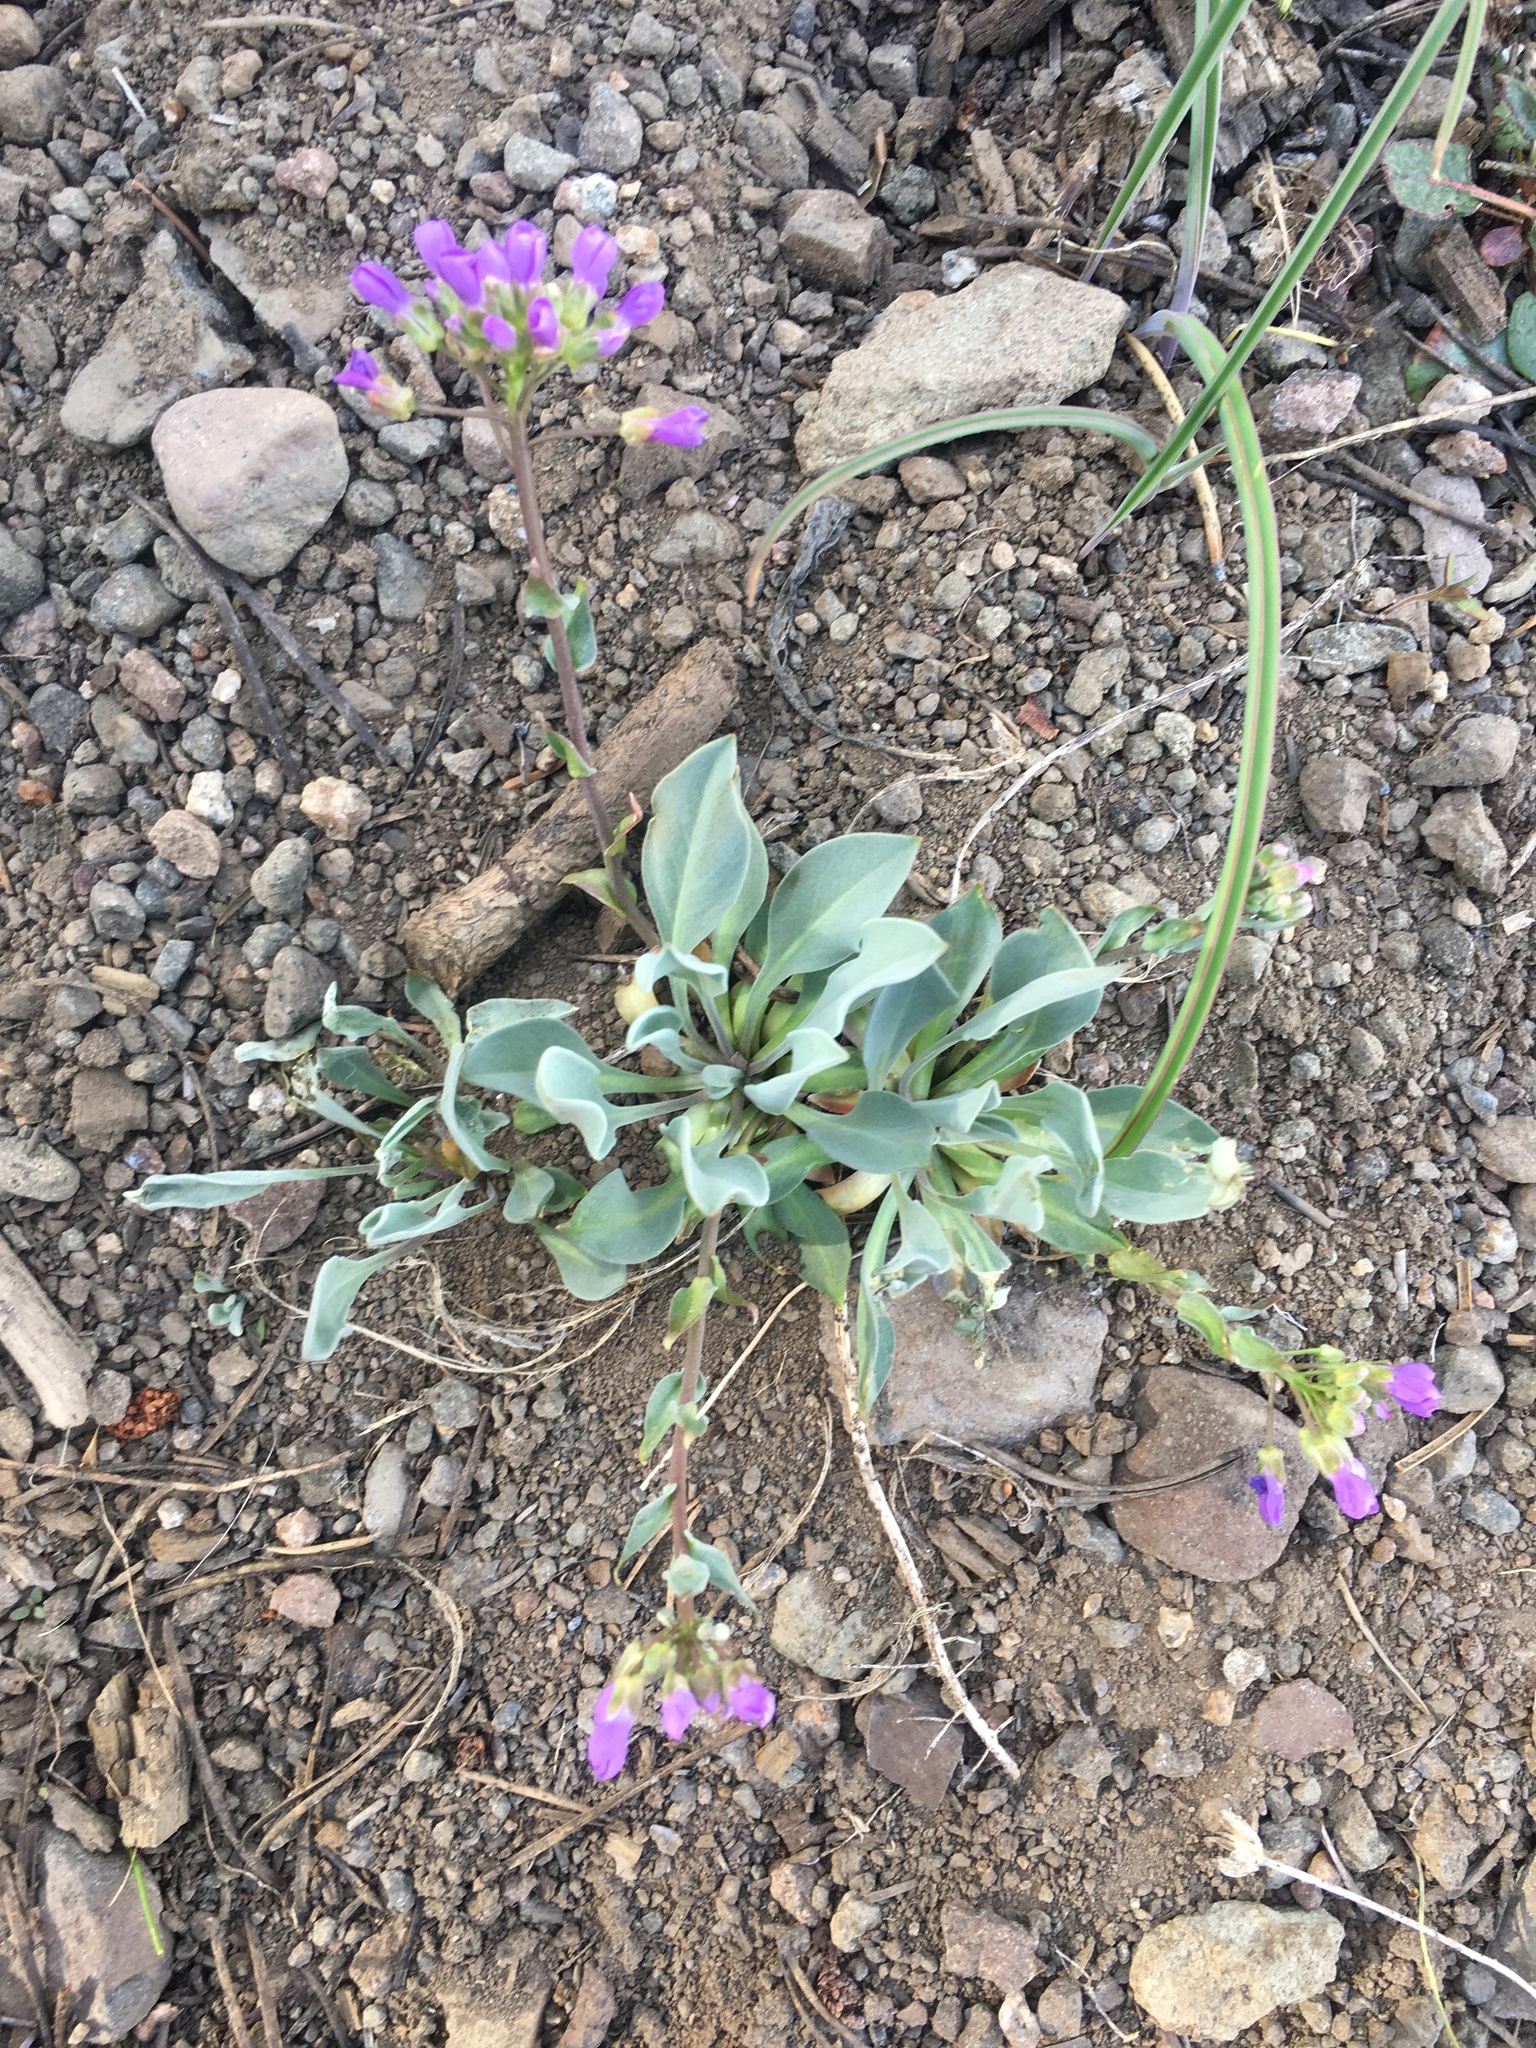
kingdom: Plantae
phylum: Tracheophyta
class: Magnoliopsida
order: Brassicales
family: Brassicaceae
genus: Phoenicaulis
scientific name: Phoenicaulis cheiranthoides
